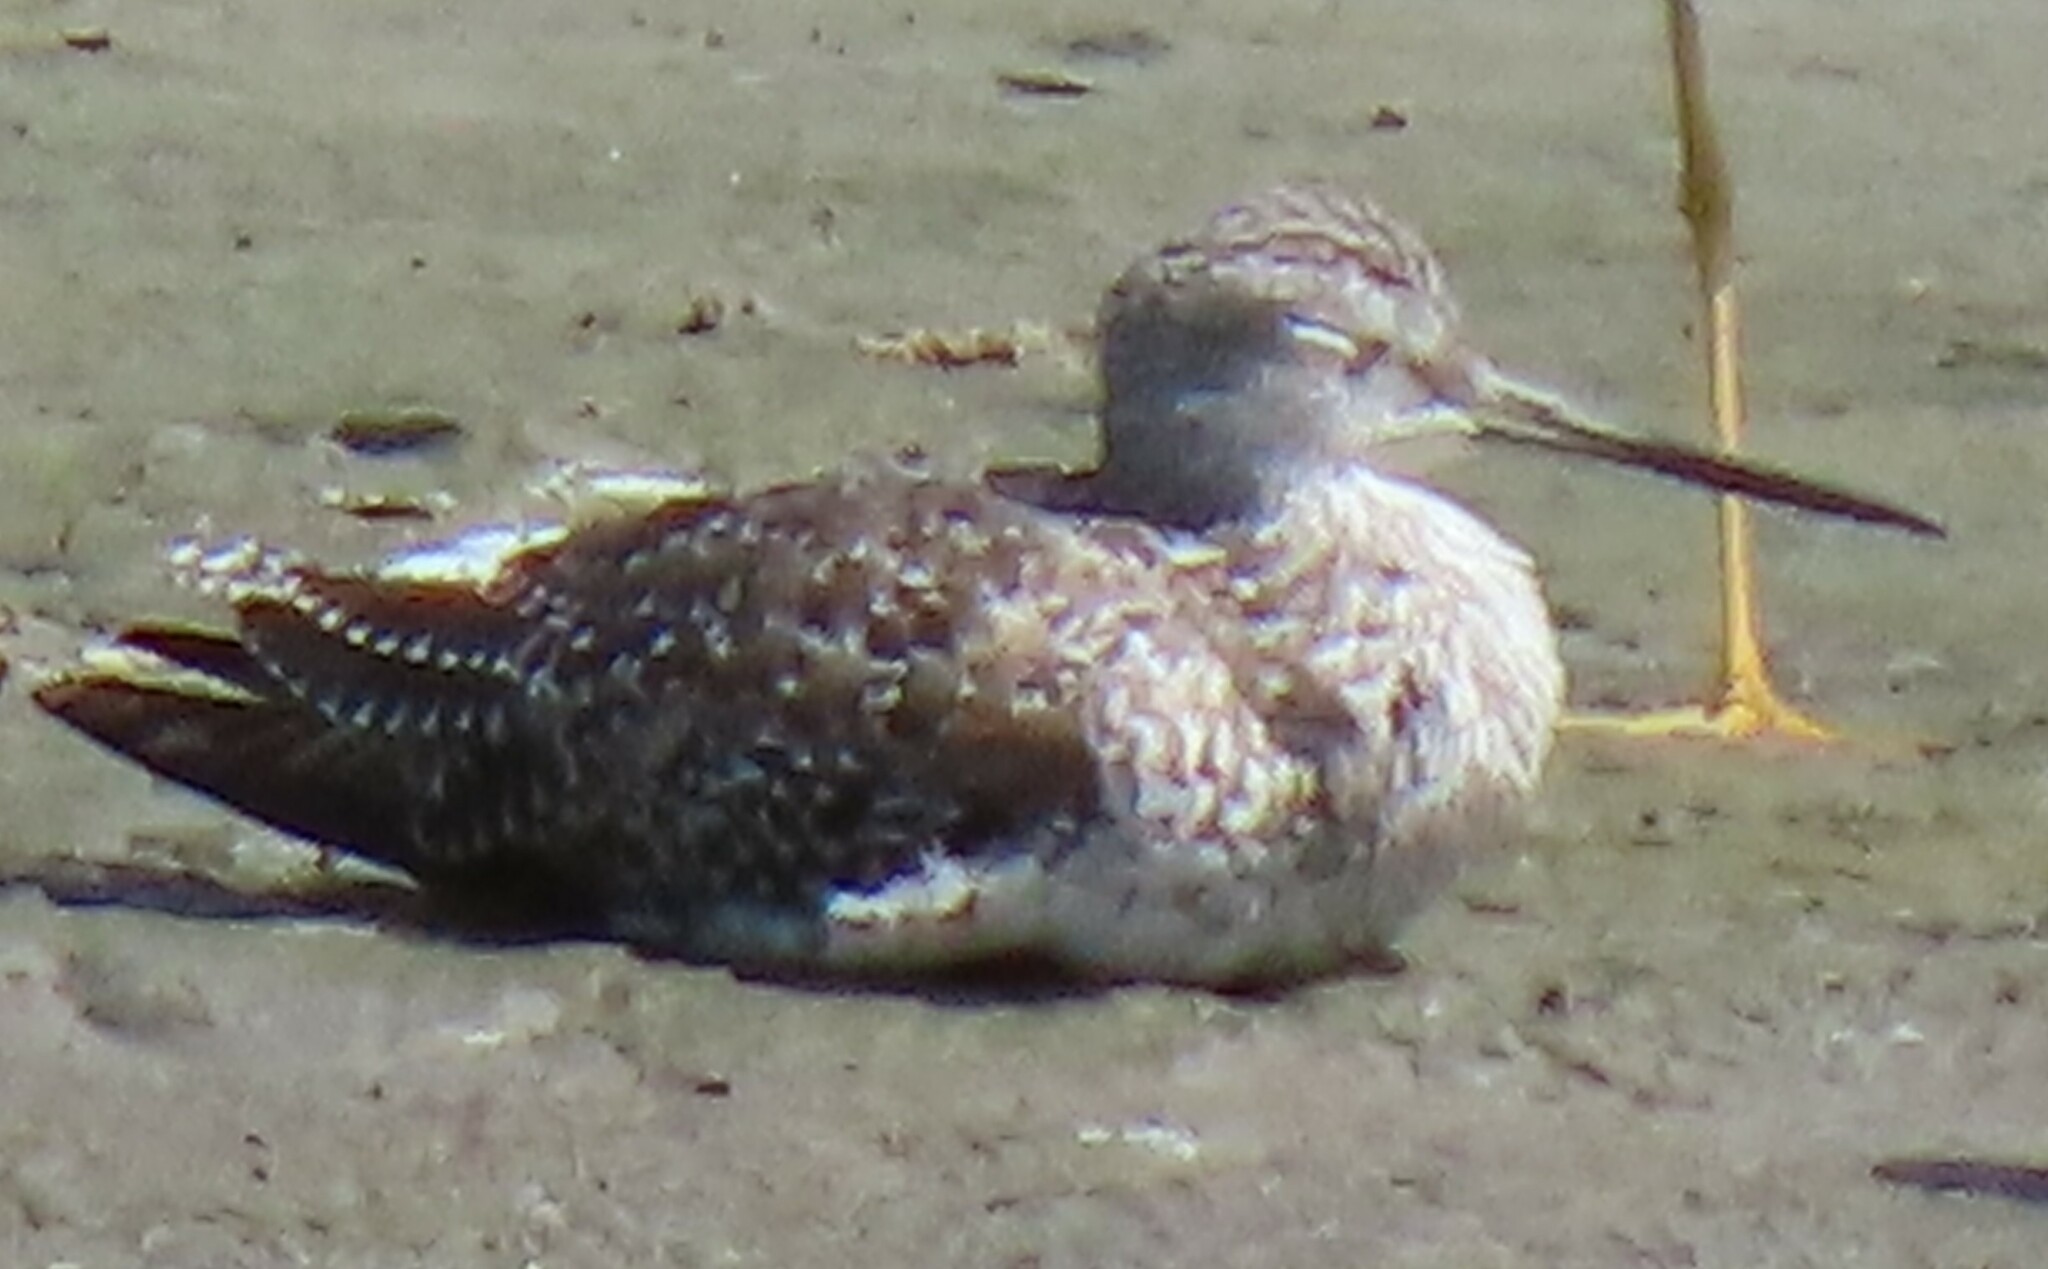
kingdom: Animalia
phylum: Chordata
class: Aves
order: Charadriiformes
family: Scolopacidae
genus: Tringa
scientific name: Tringa melanoleuca
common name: Greater yellowlegs
